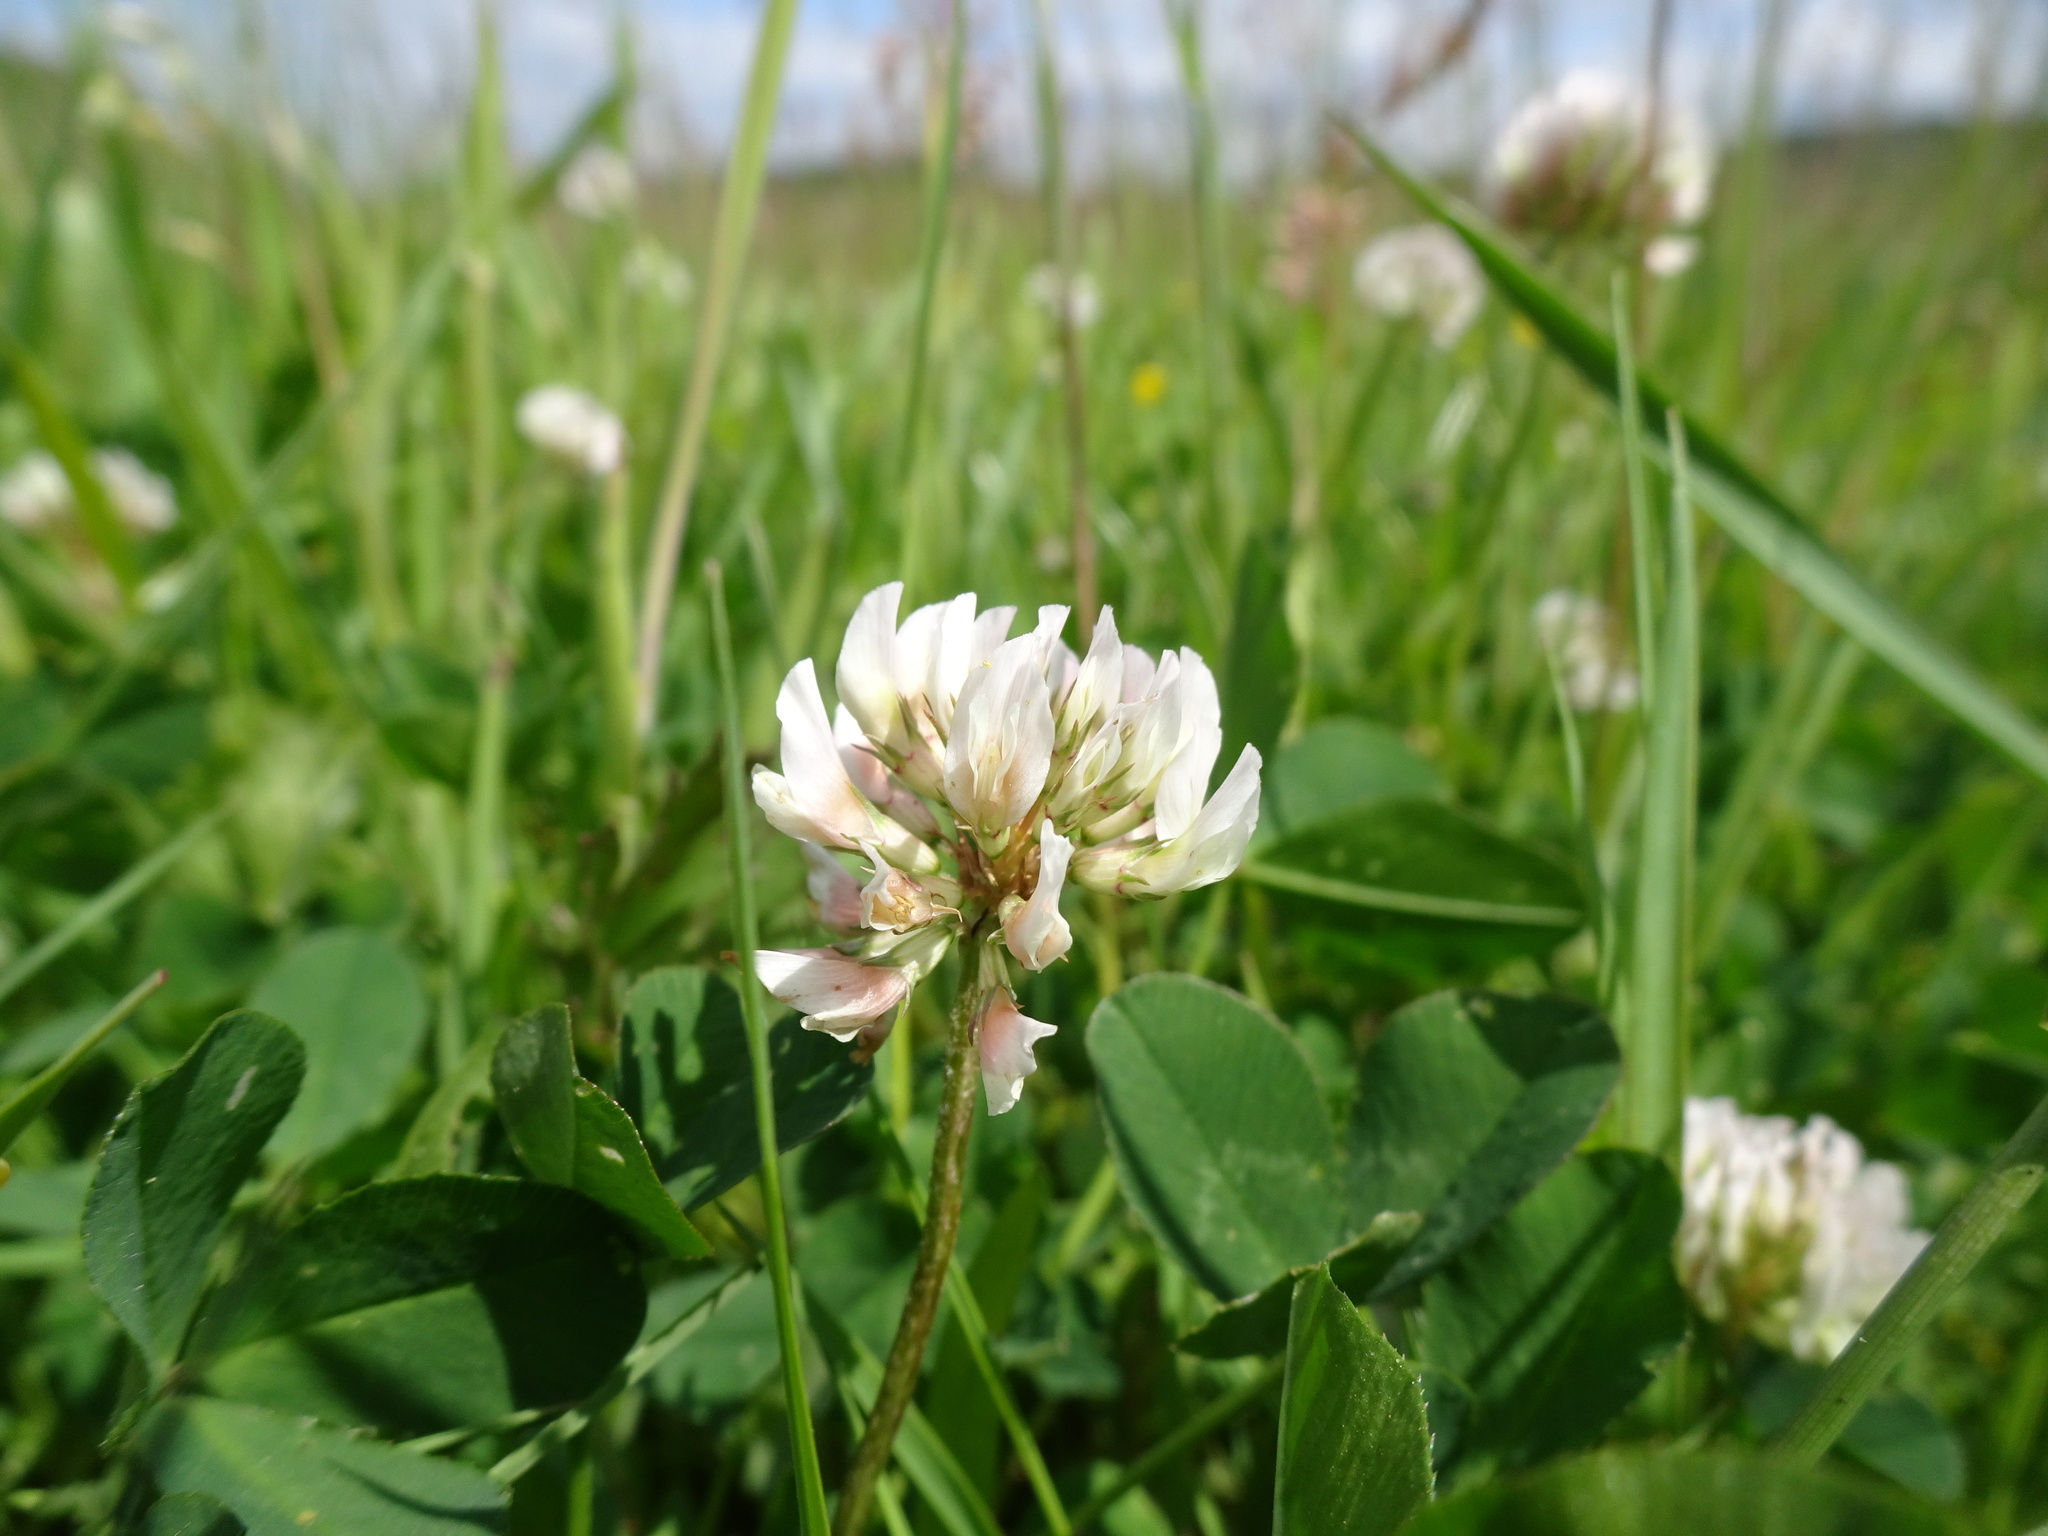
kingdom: Plantae
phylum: Tracheophyta
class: Magnoliopsida
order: Fabales
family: Fabaceae
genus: Trifolium
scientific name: Trifolium repens
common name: White clover
